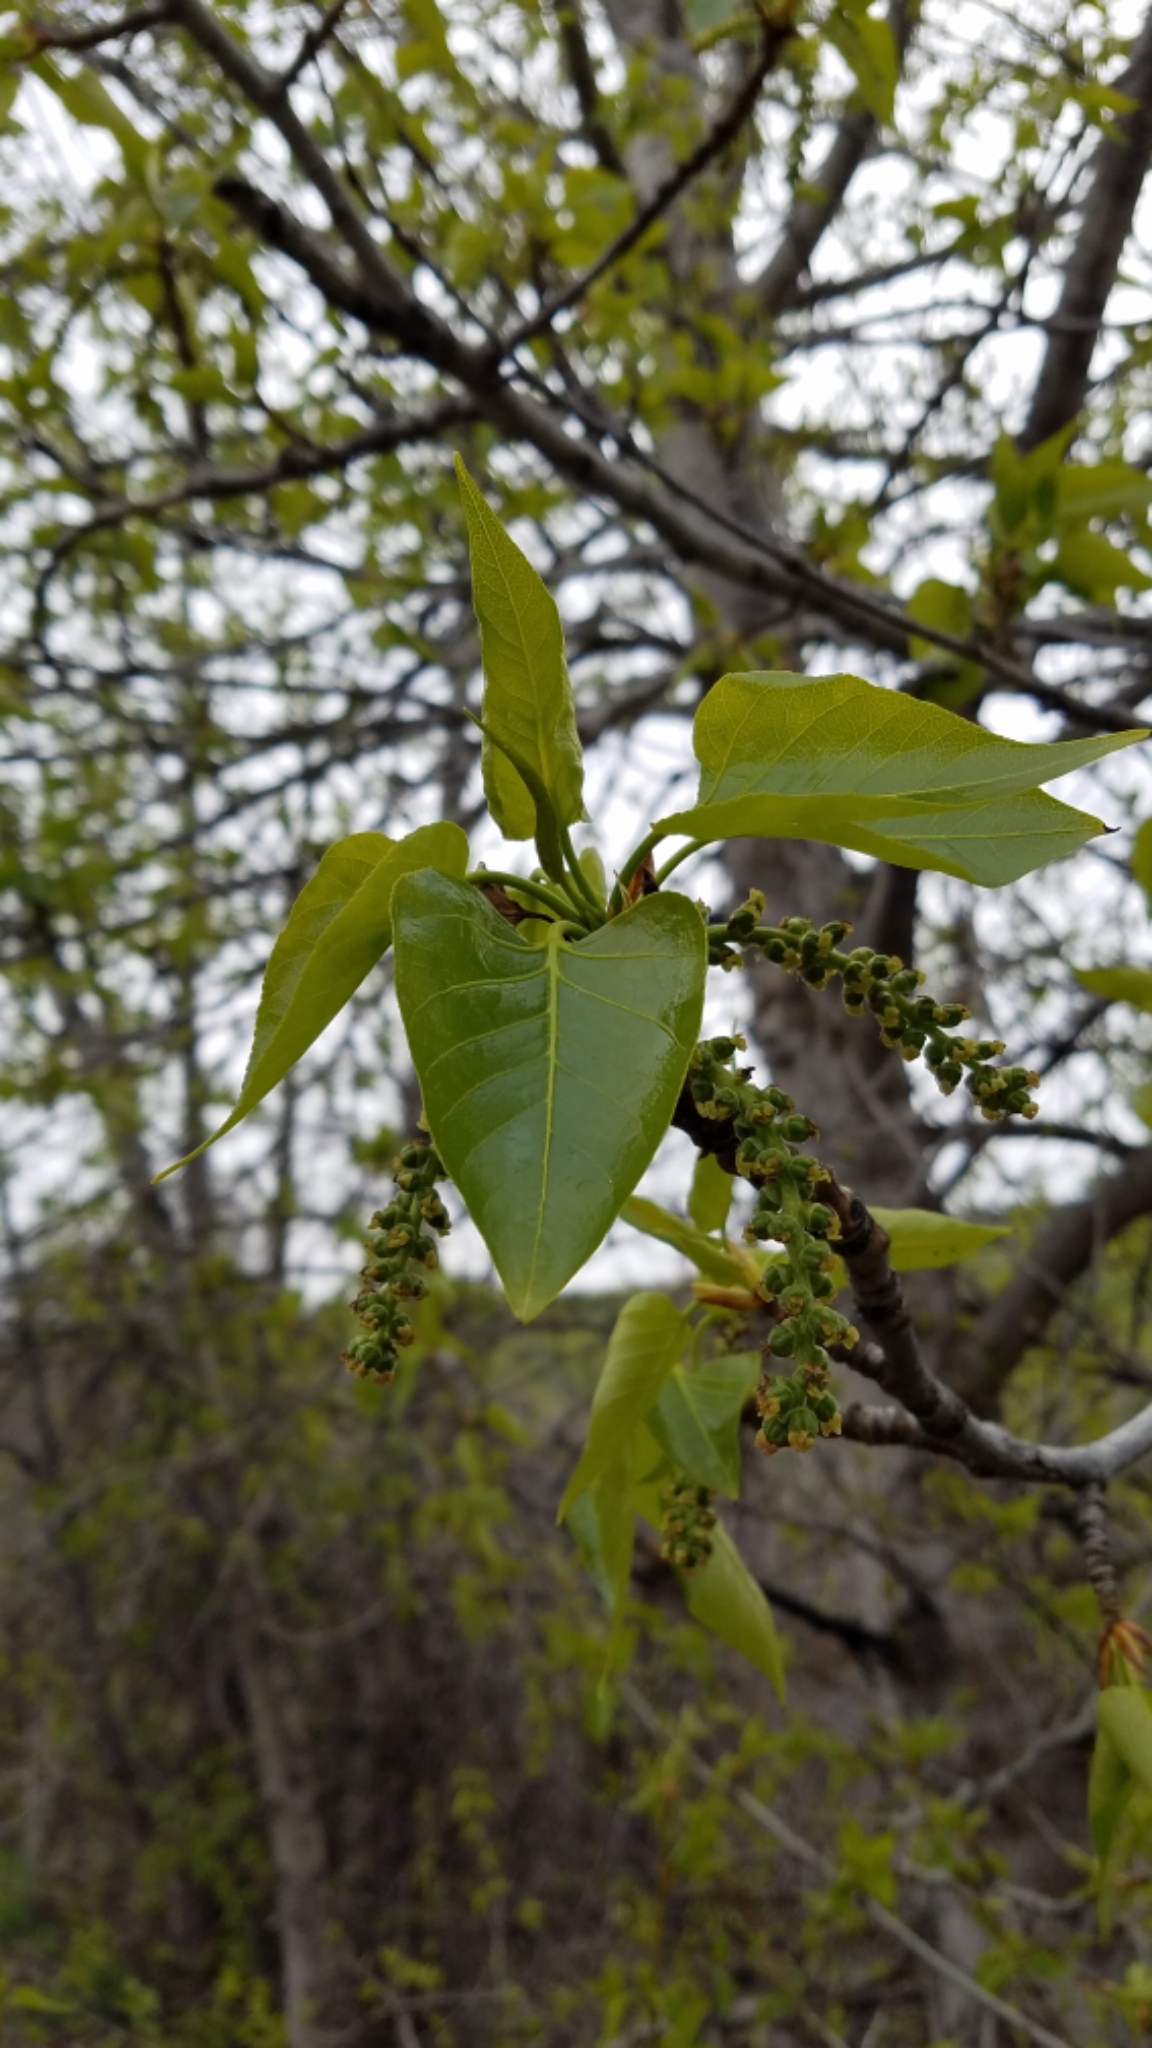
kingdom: Plantae
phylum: Tracheophyta
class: Magnoliopsida
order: Malpighiales
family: Salicaceae
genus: Populus
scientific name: Populus trichocarpa
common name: Black cottonwood
